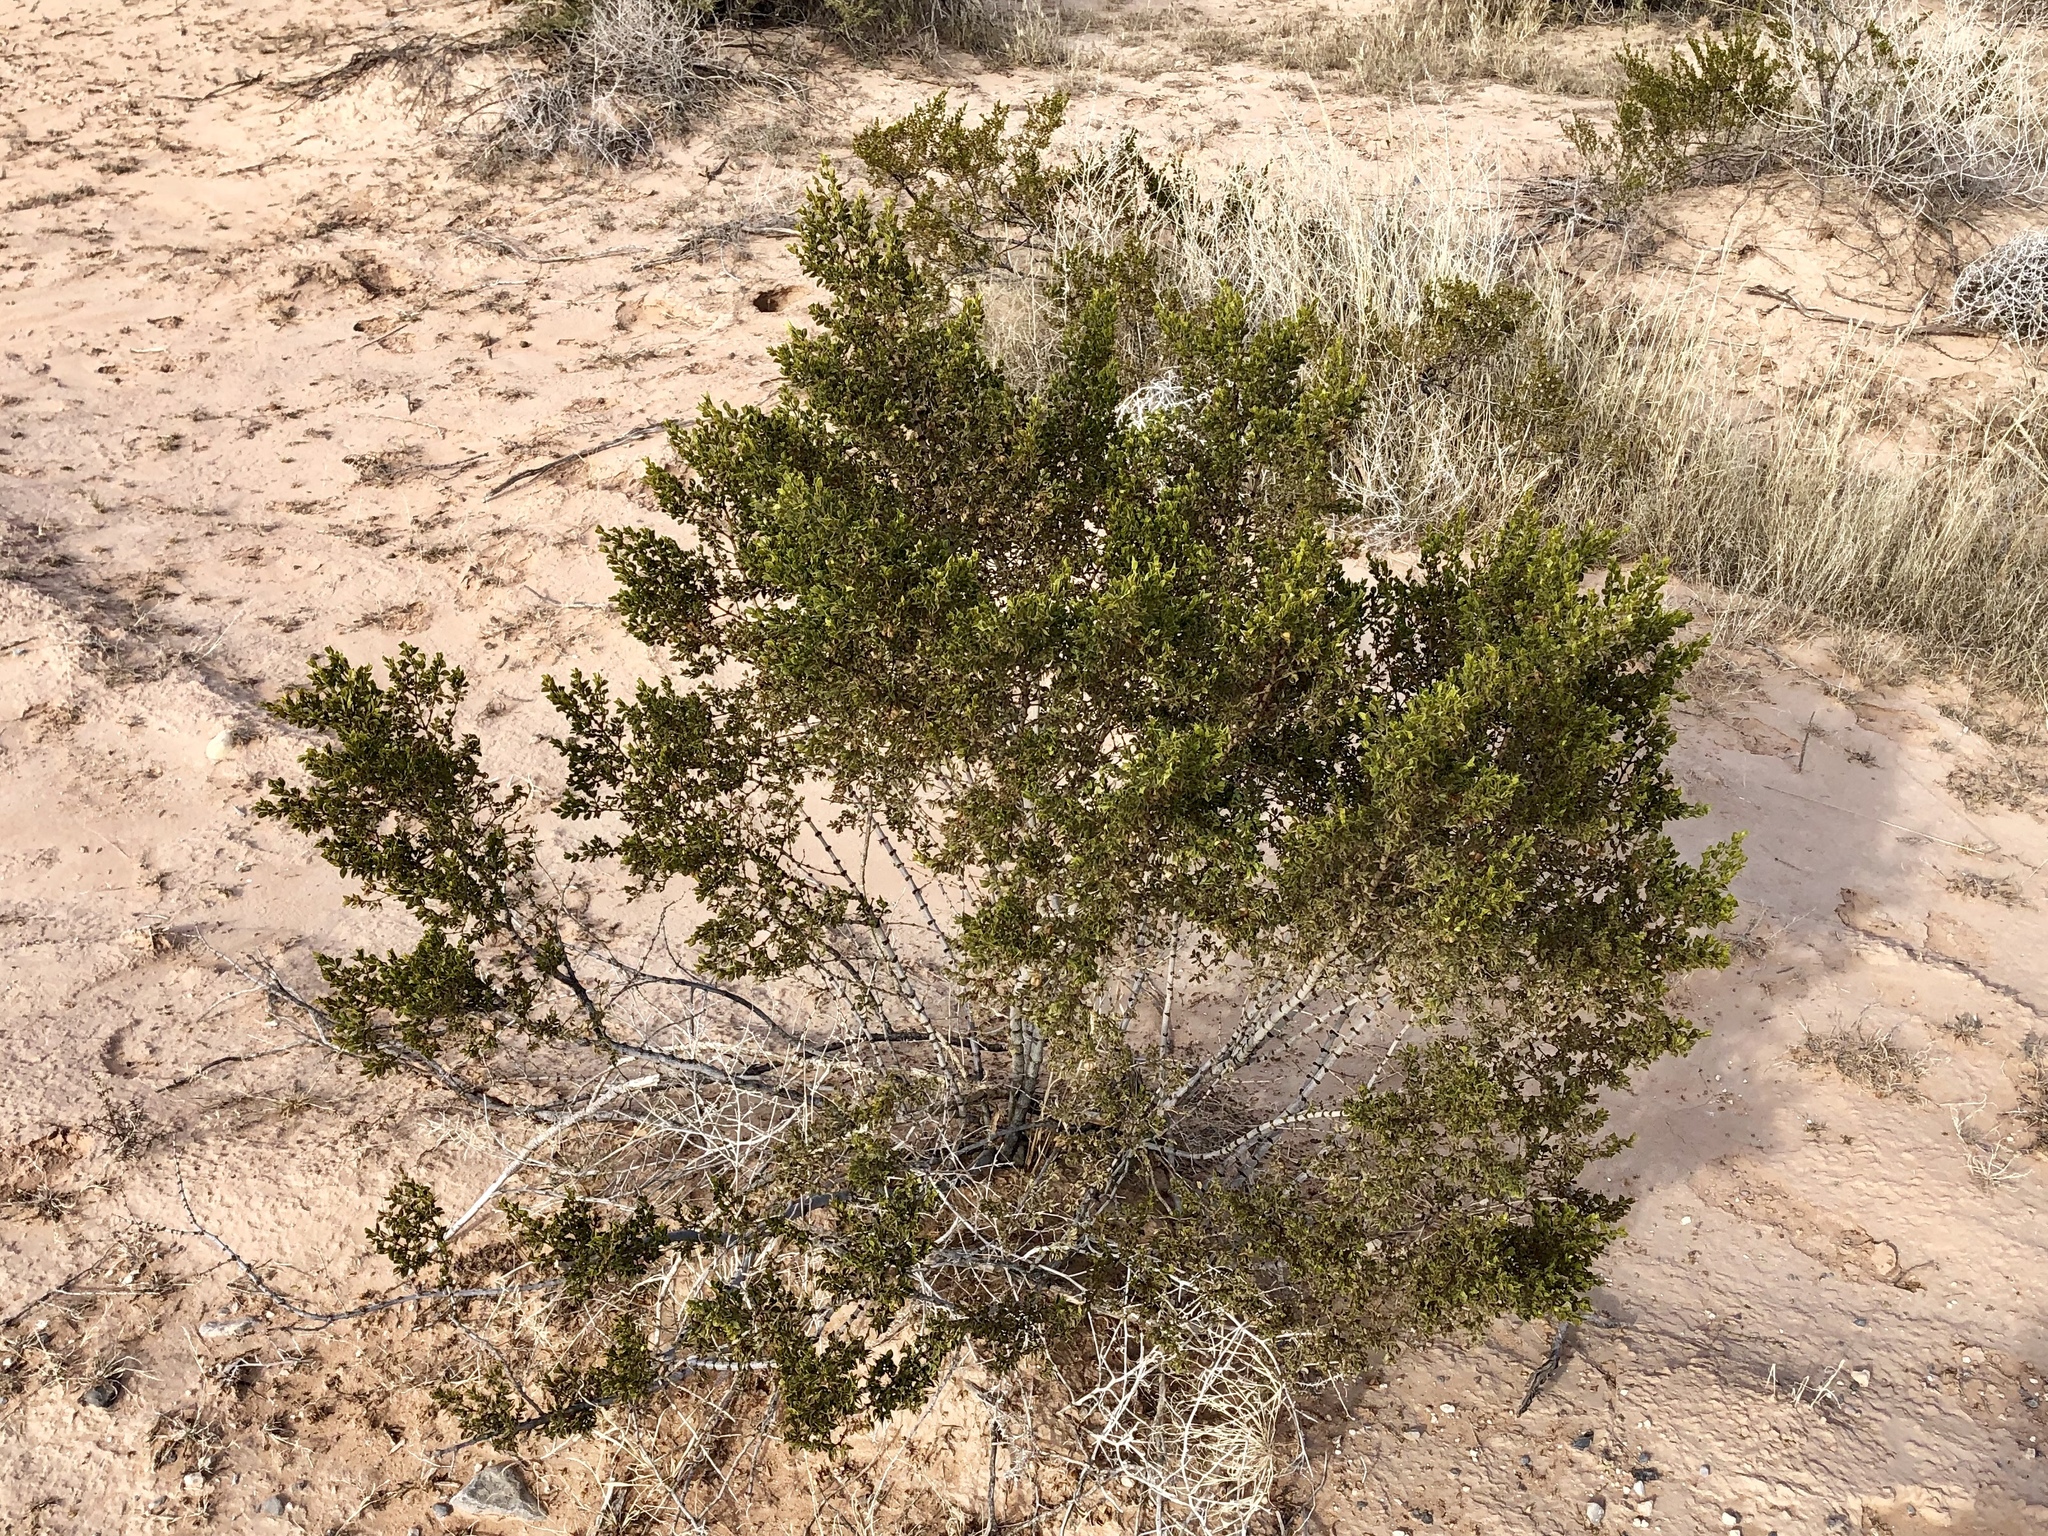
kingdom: Plantae
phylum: Tracheophyta
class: Magnoliopsida
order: Zygophyllales
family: Zygophyllaceae
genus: Larrea
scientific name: Larrea tridentata
